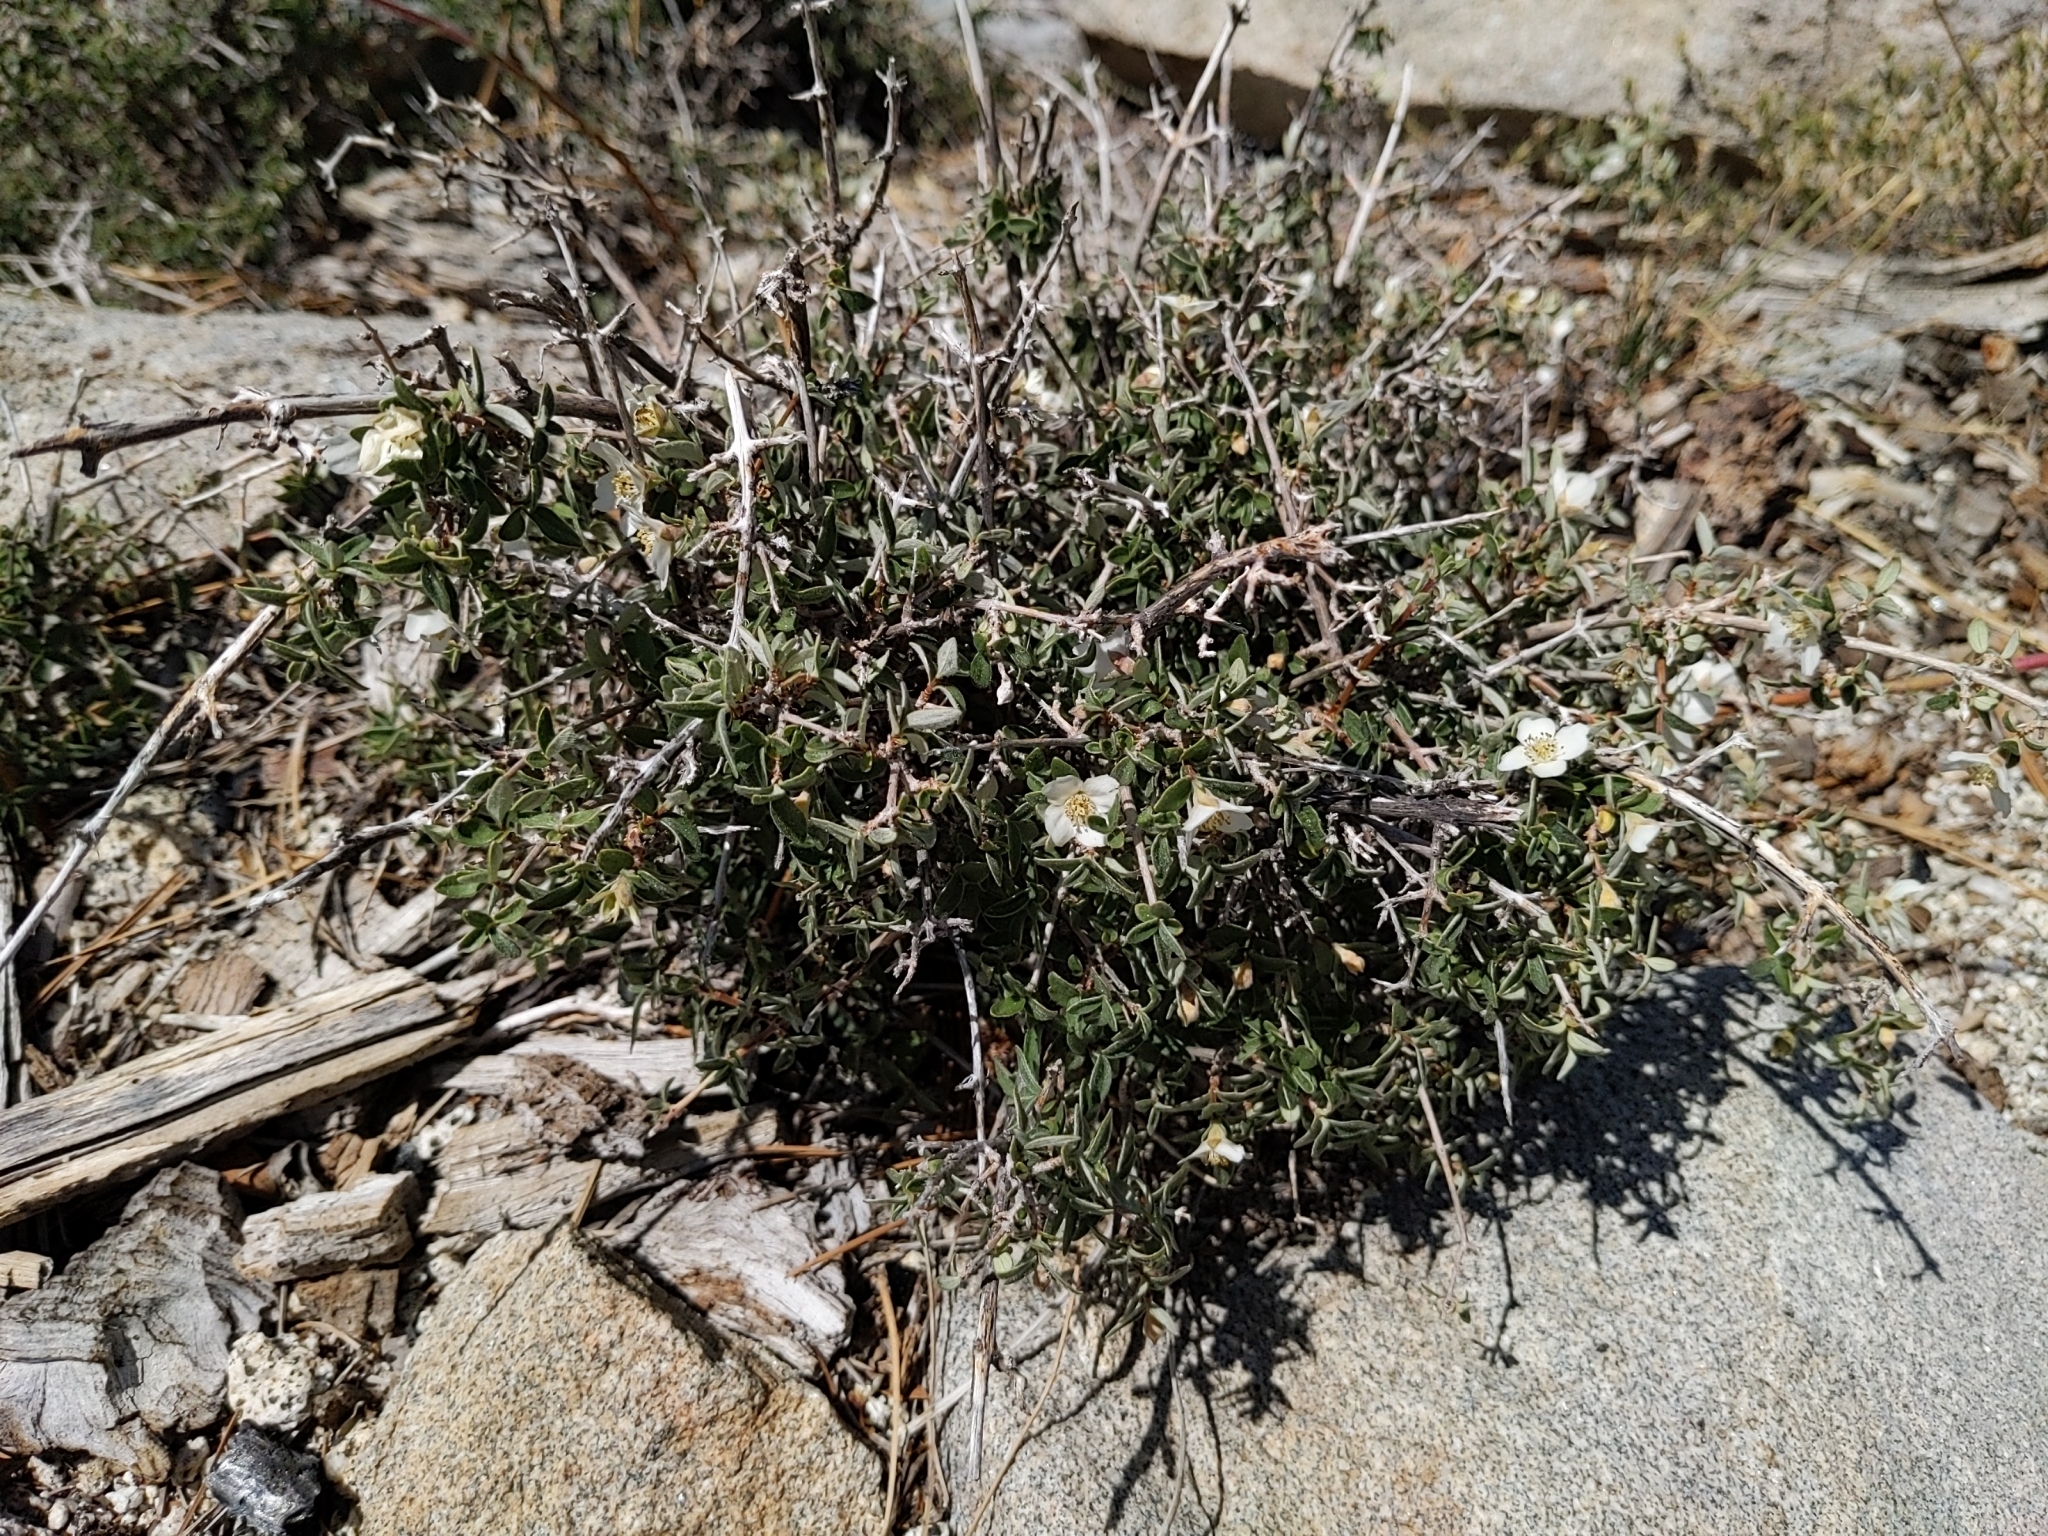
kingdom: Plantae
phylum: Tracheophyta
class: Magnoliopsida
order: Cornales
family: Hydrangeaceae
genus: Philadelphus
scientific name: Philadelphus microphyllus
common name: Desert mock orange
